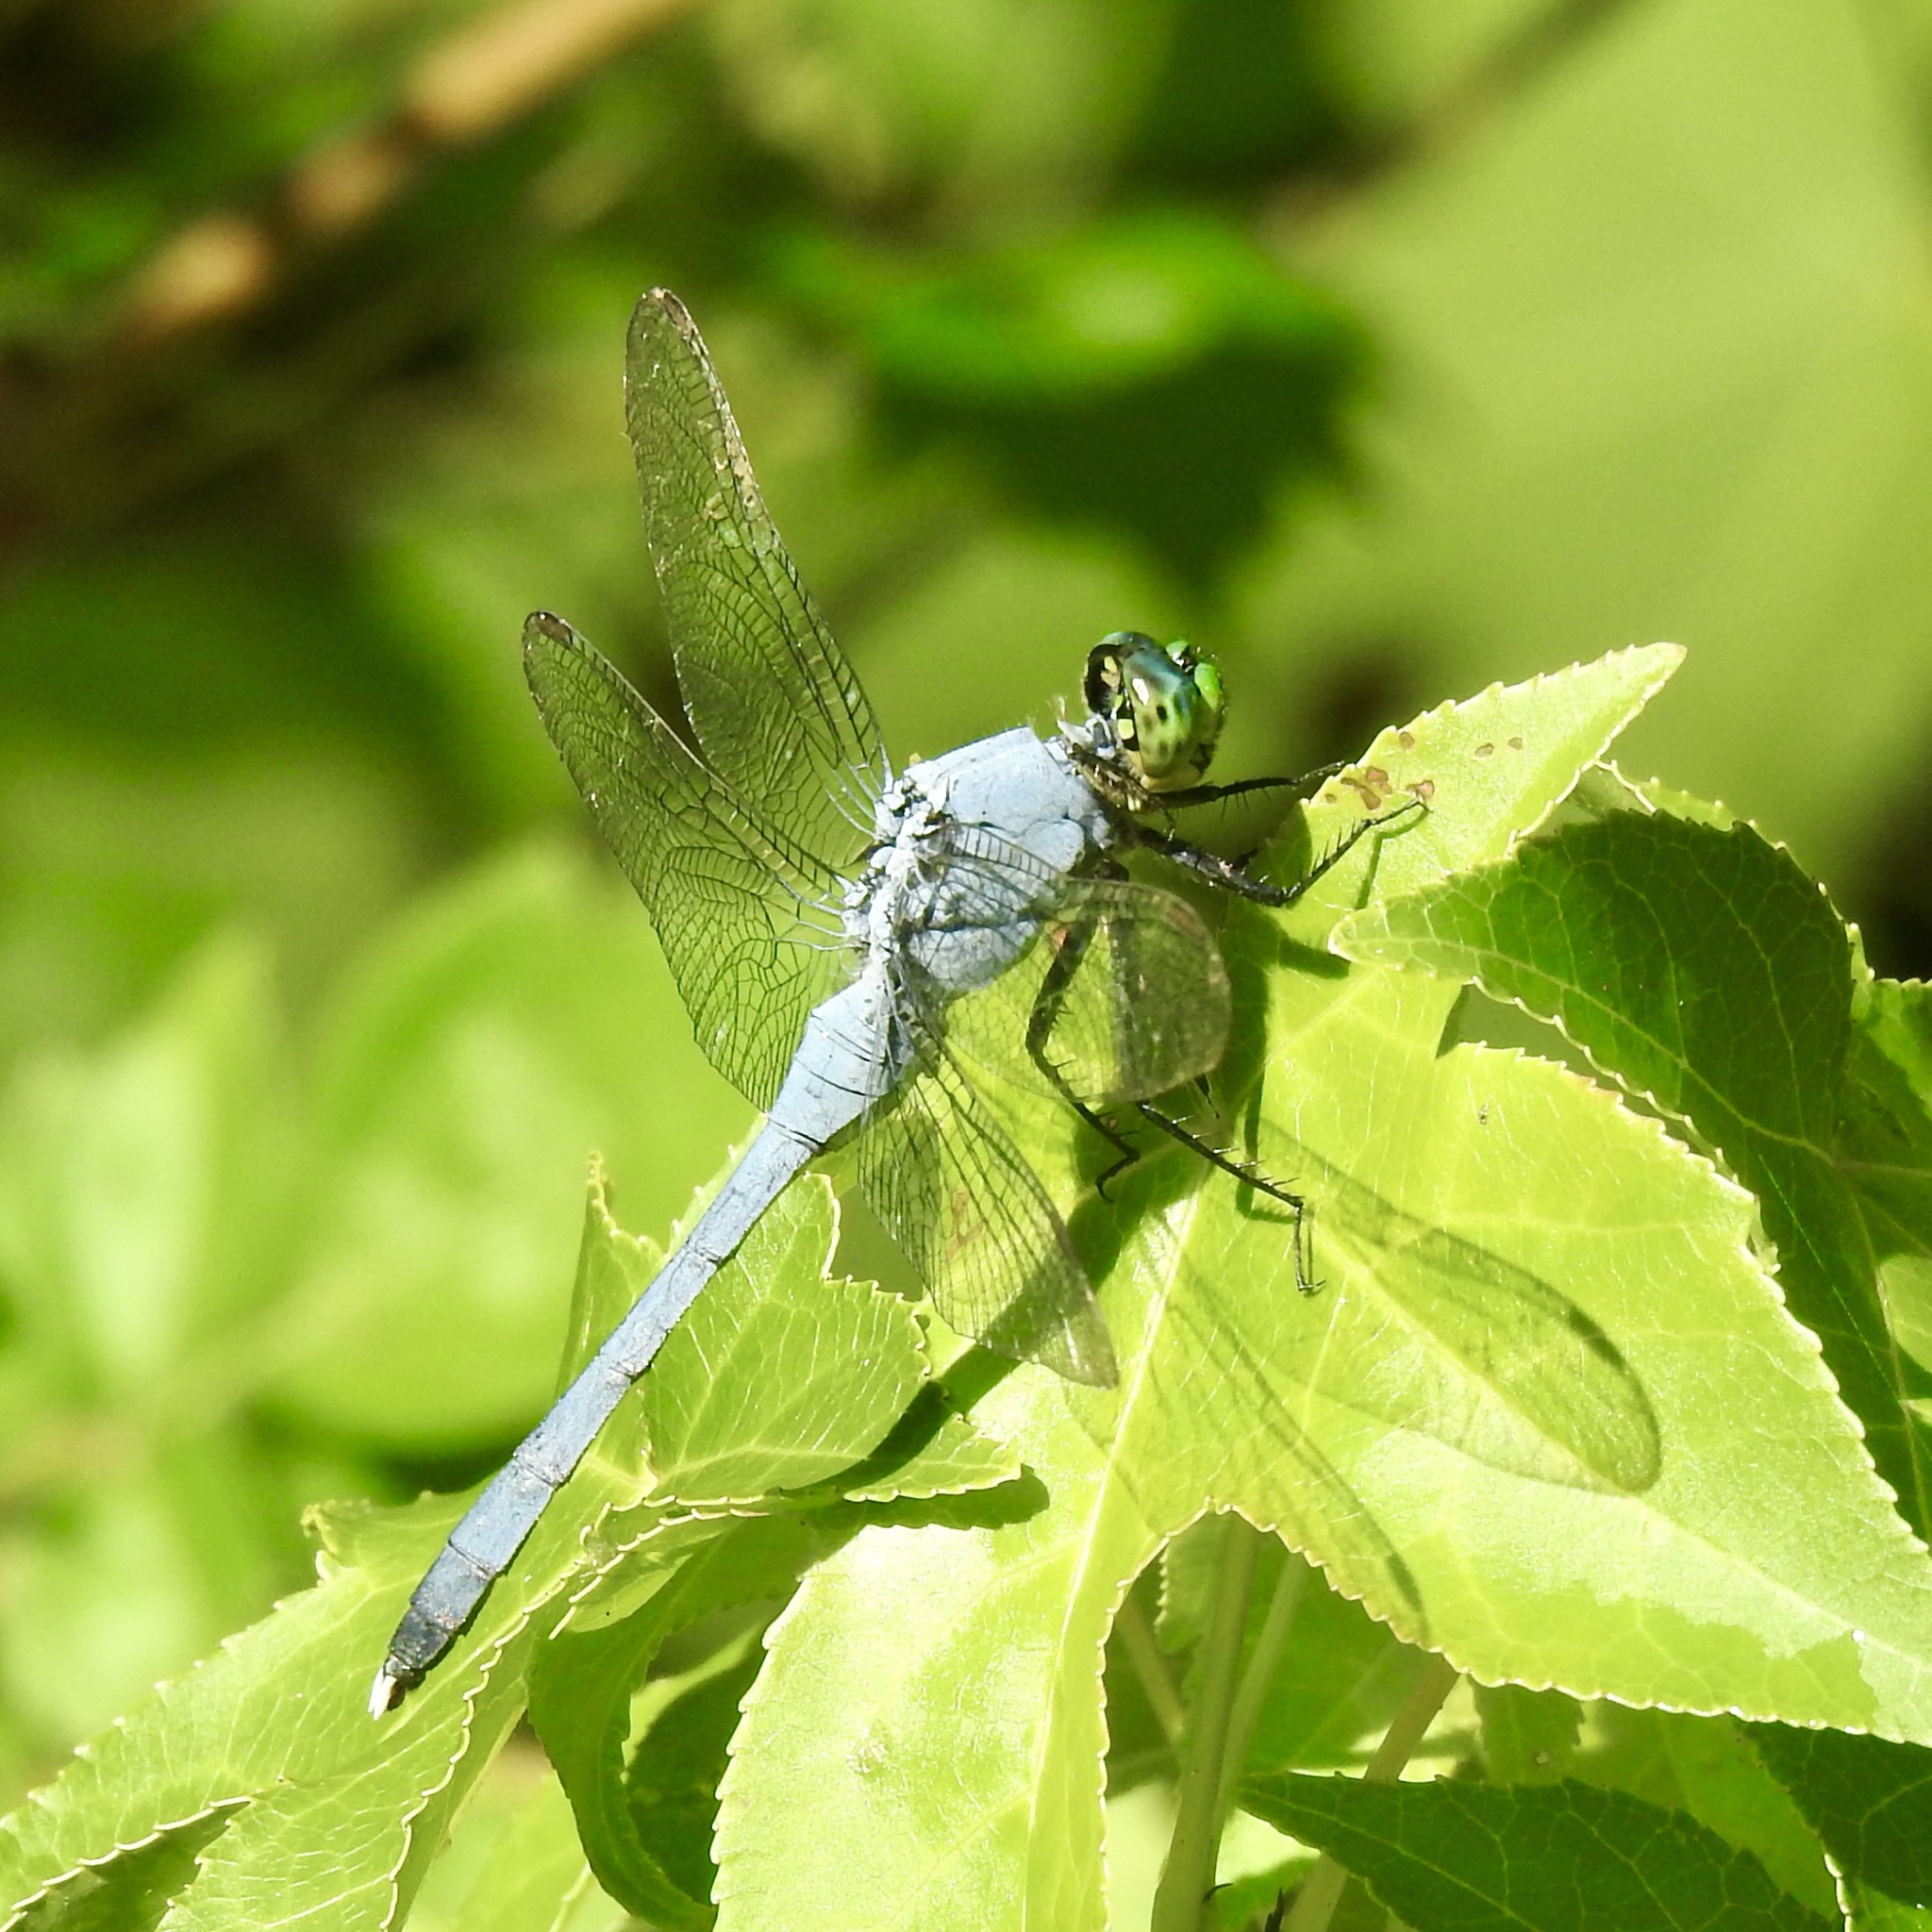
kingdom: Animalia
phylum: Arthropoda
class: Insecta
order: Odonata
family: Libellulidae
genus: Erythemis
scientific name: Erythemis simplicicollis
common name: Eastern pondhawk
